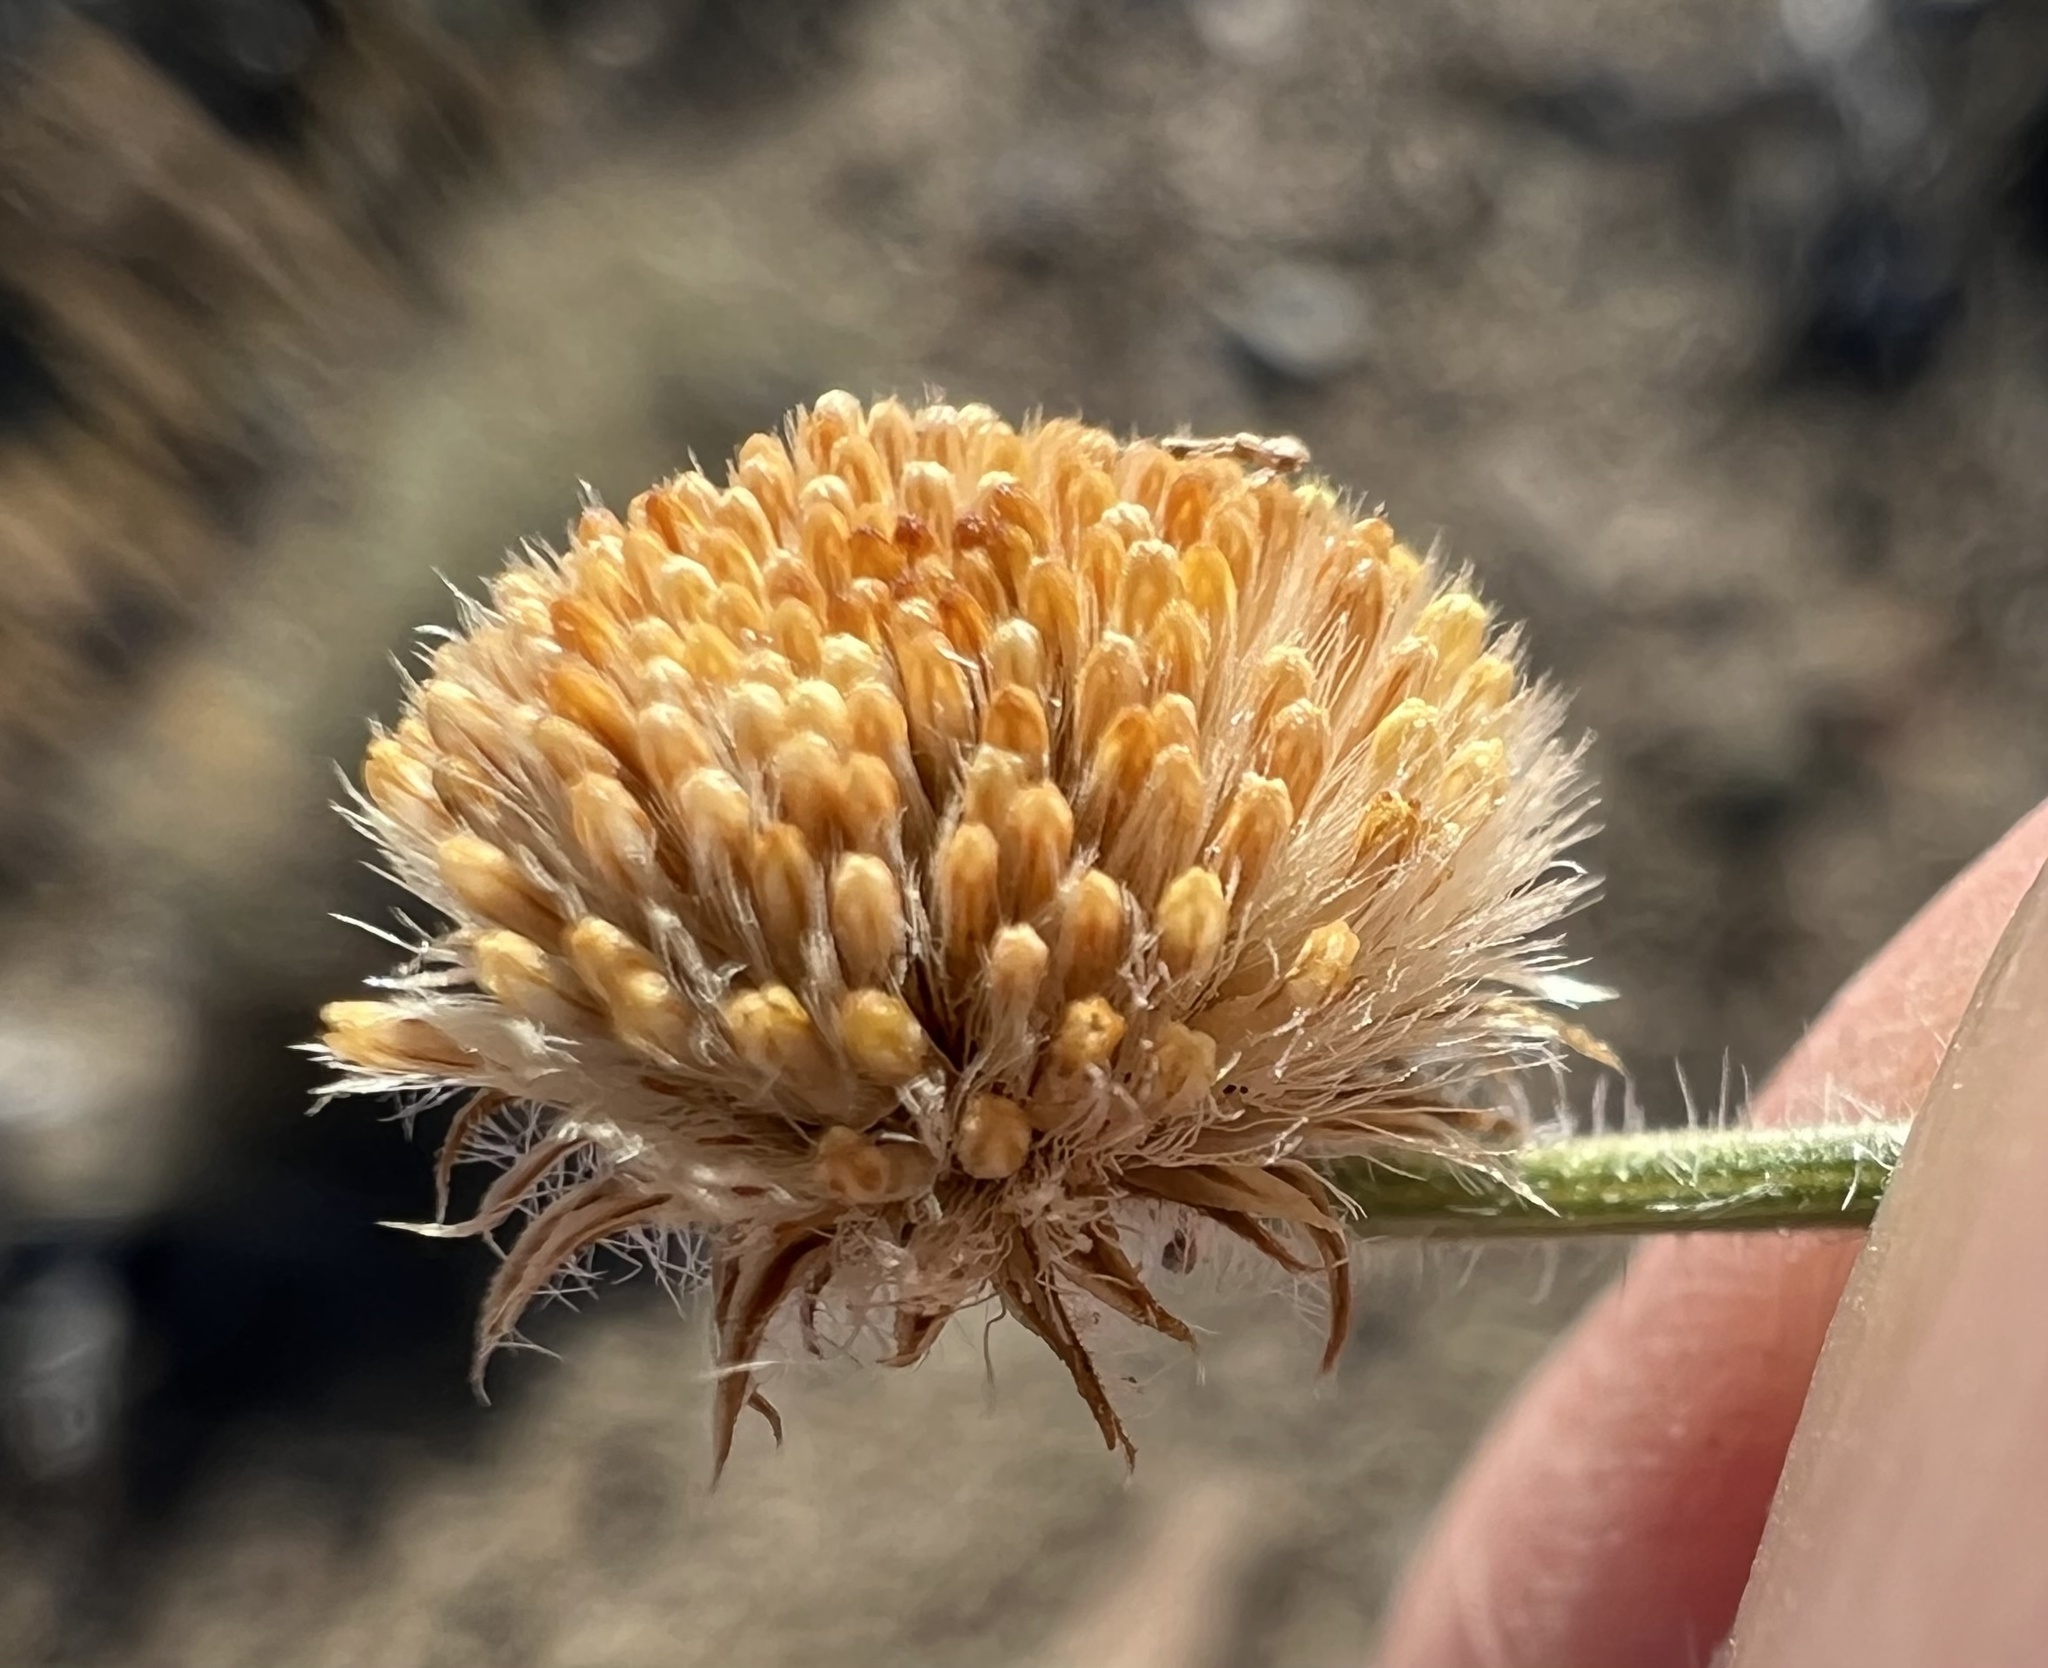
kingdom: Plantae
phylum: Tracheophyta
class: Magnoliopsida
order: Asterales
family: Asteraceae
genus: Erigeron
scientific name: Erigeron aphanactis
